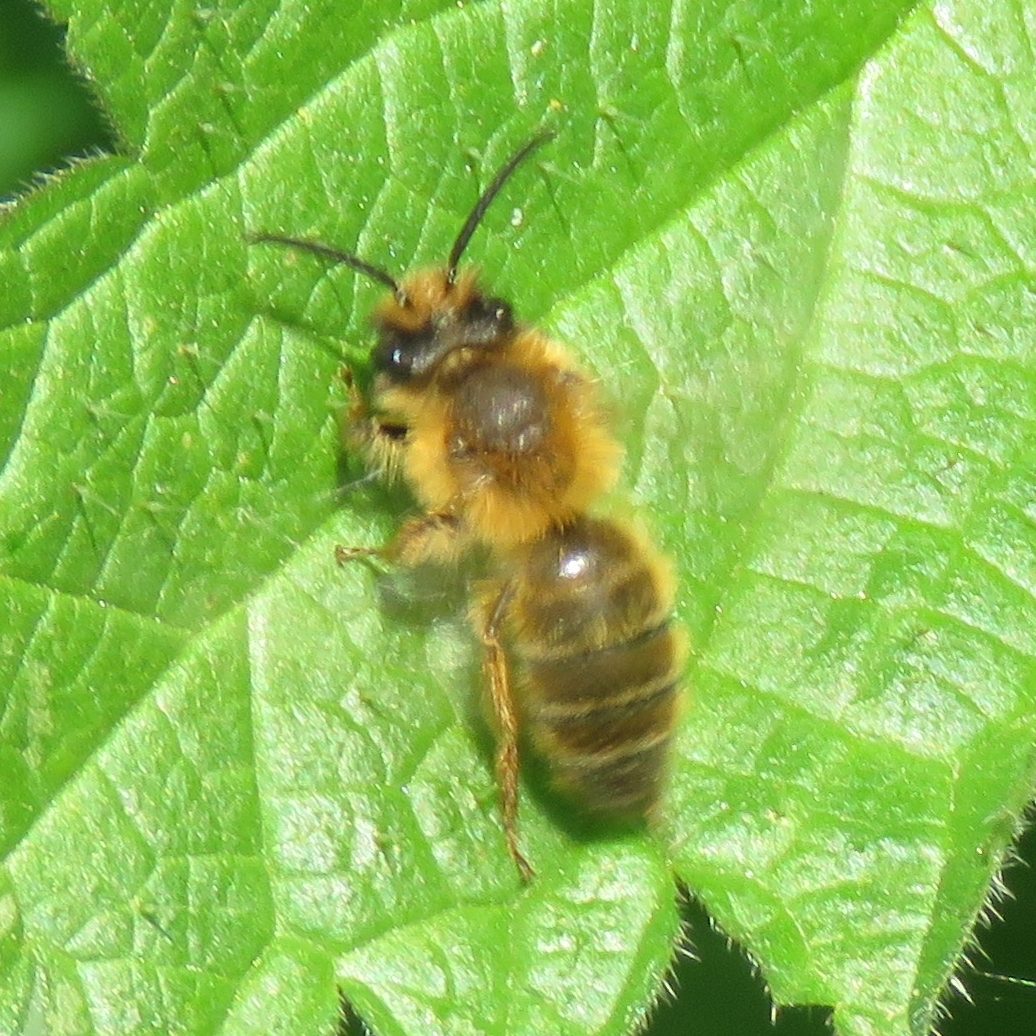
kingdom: Animalia
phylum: Arthropoda
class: Insecta
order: Hymenoptera
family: Andrenidae
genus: Andrena
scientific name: Andrena nigroaenea
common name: Buffish mining bee
